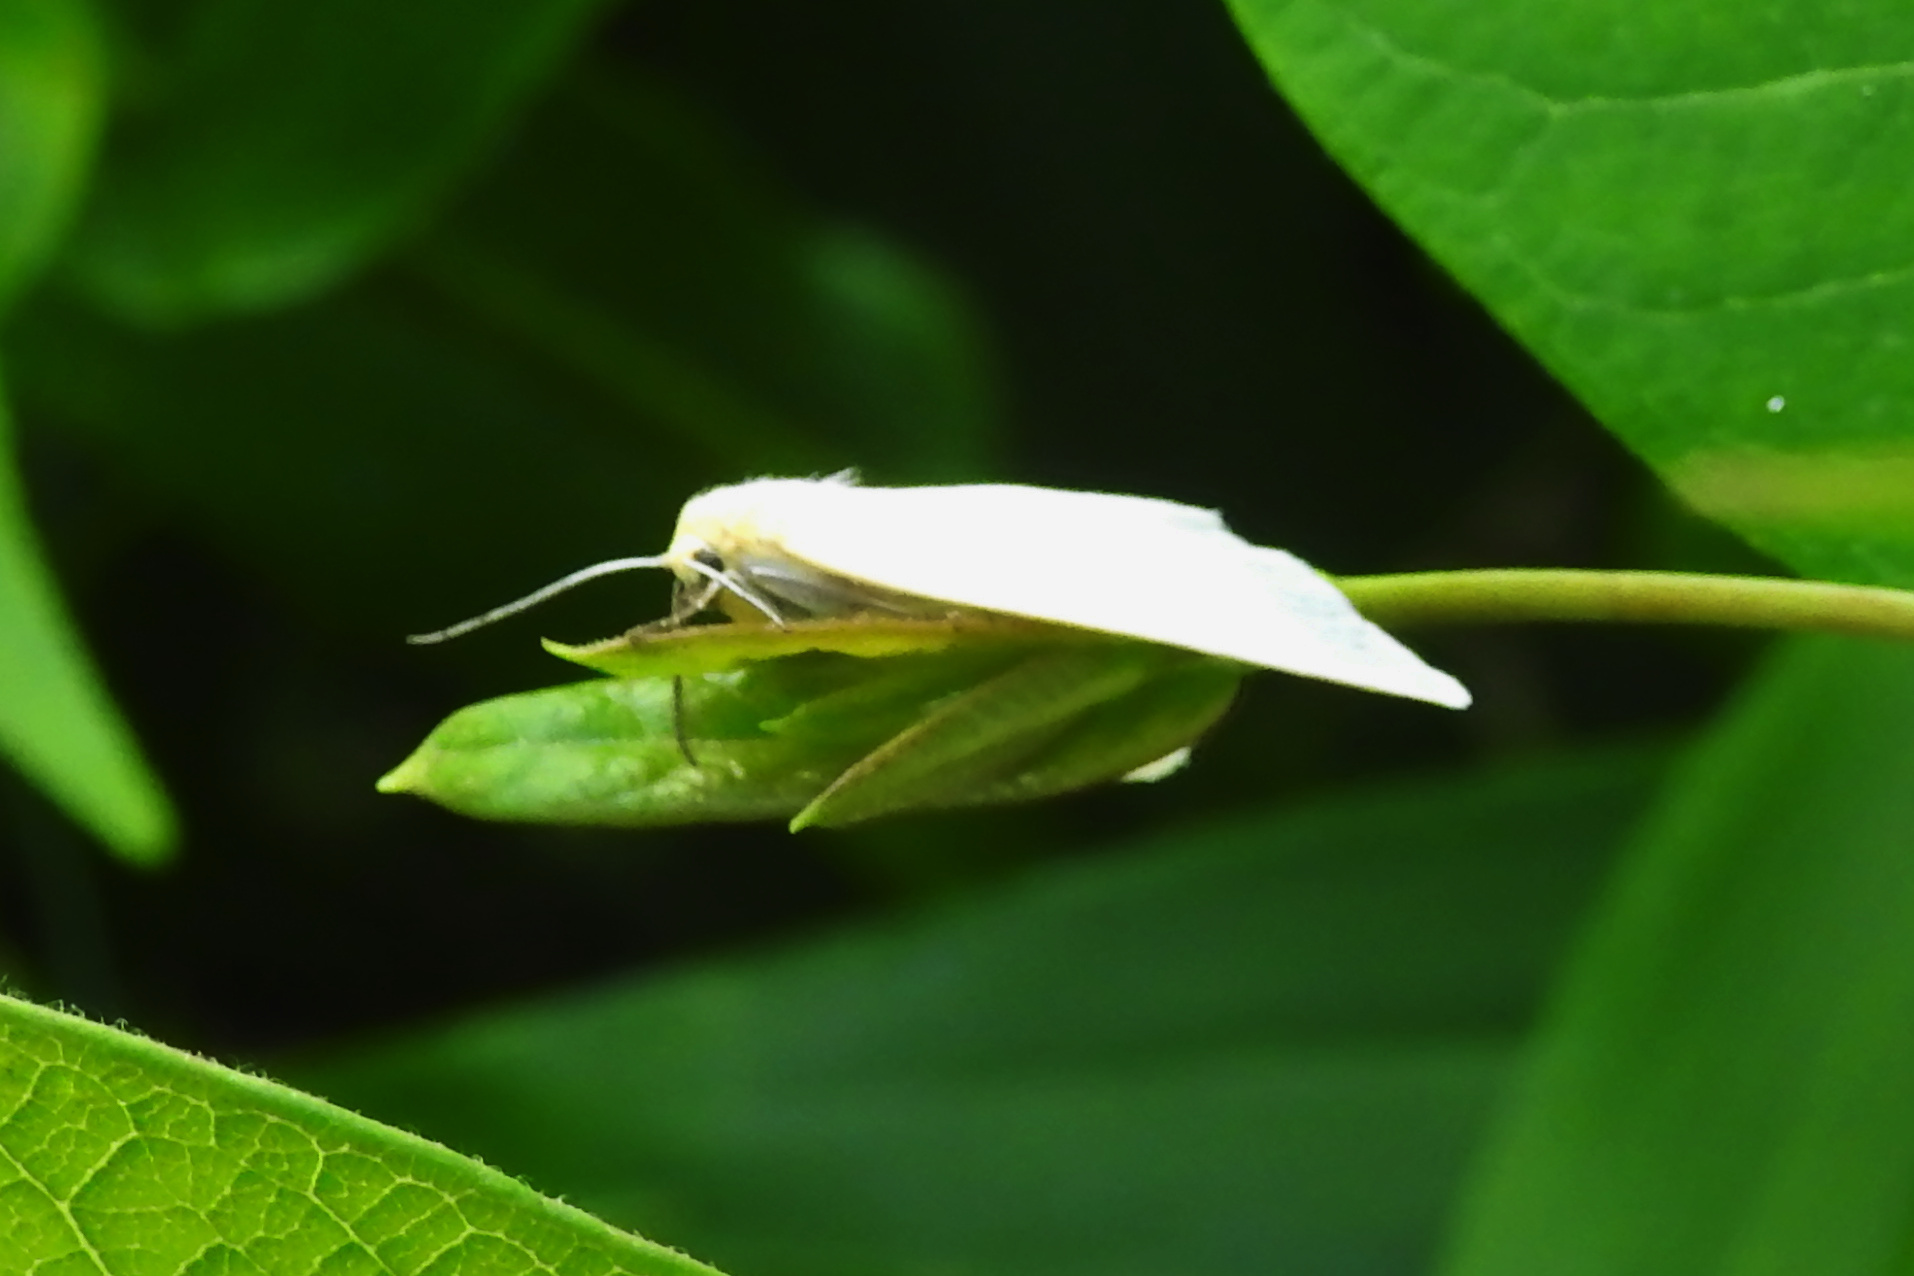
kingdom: Animalia
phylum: Arthropoda
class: Insecta
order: Lepidoptera
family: Erebidae
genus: Cycnia
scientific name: Cycnia tenera
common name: Delicate cycnia moth
